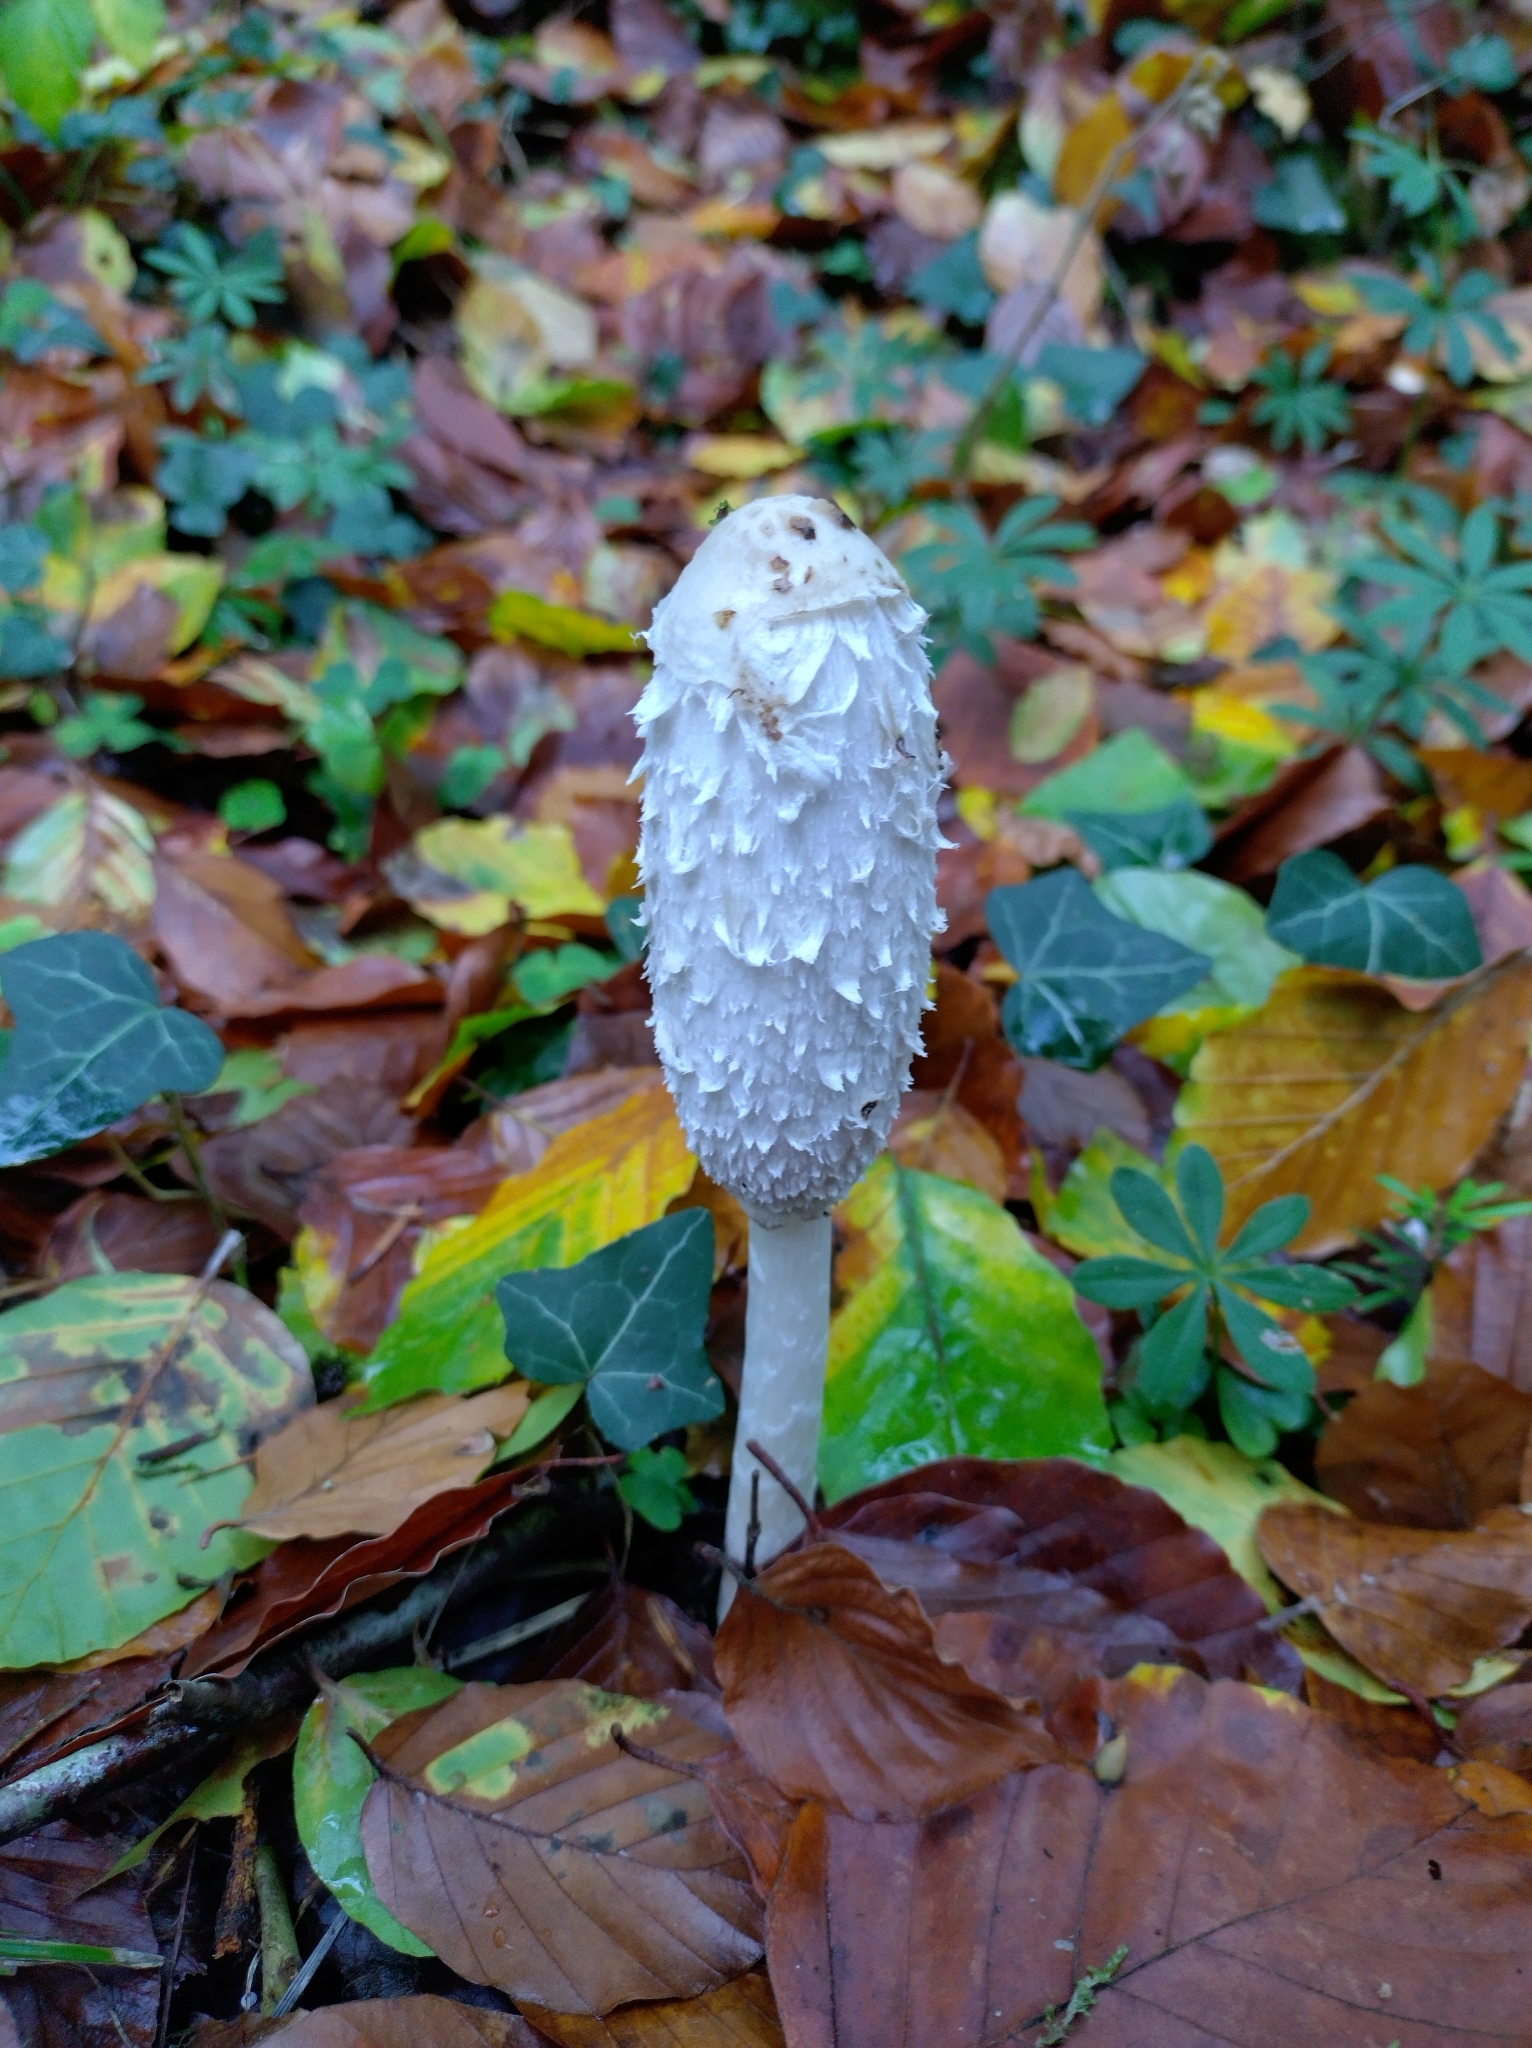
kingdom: Fungi
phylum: Basidiomycota
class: Agaricomycetes
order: Agaricales
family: Agaricaceae
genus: Coprinus
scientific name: Coprinus comatus
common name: Lawyer's wig
